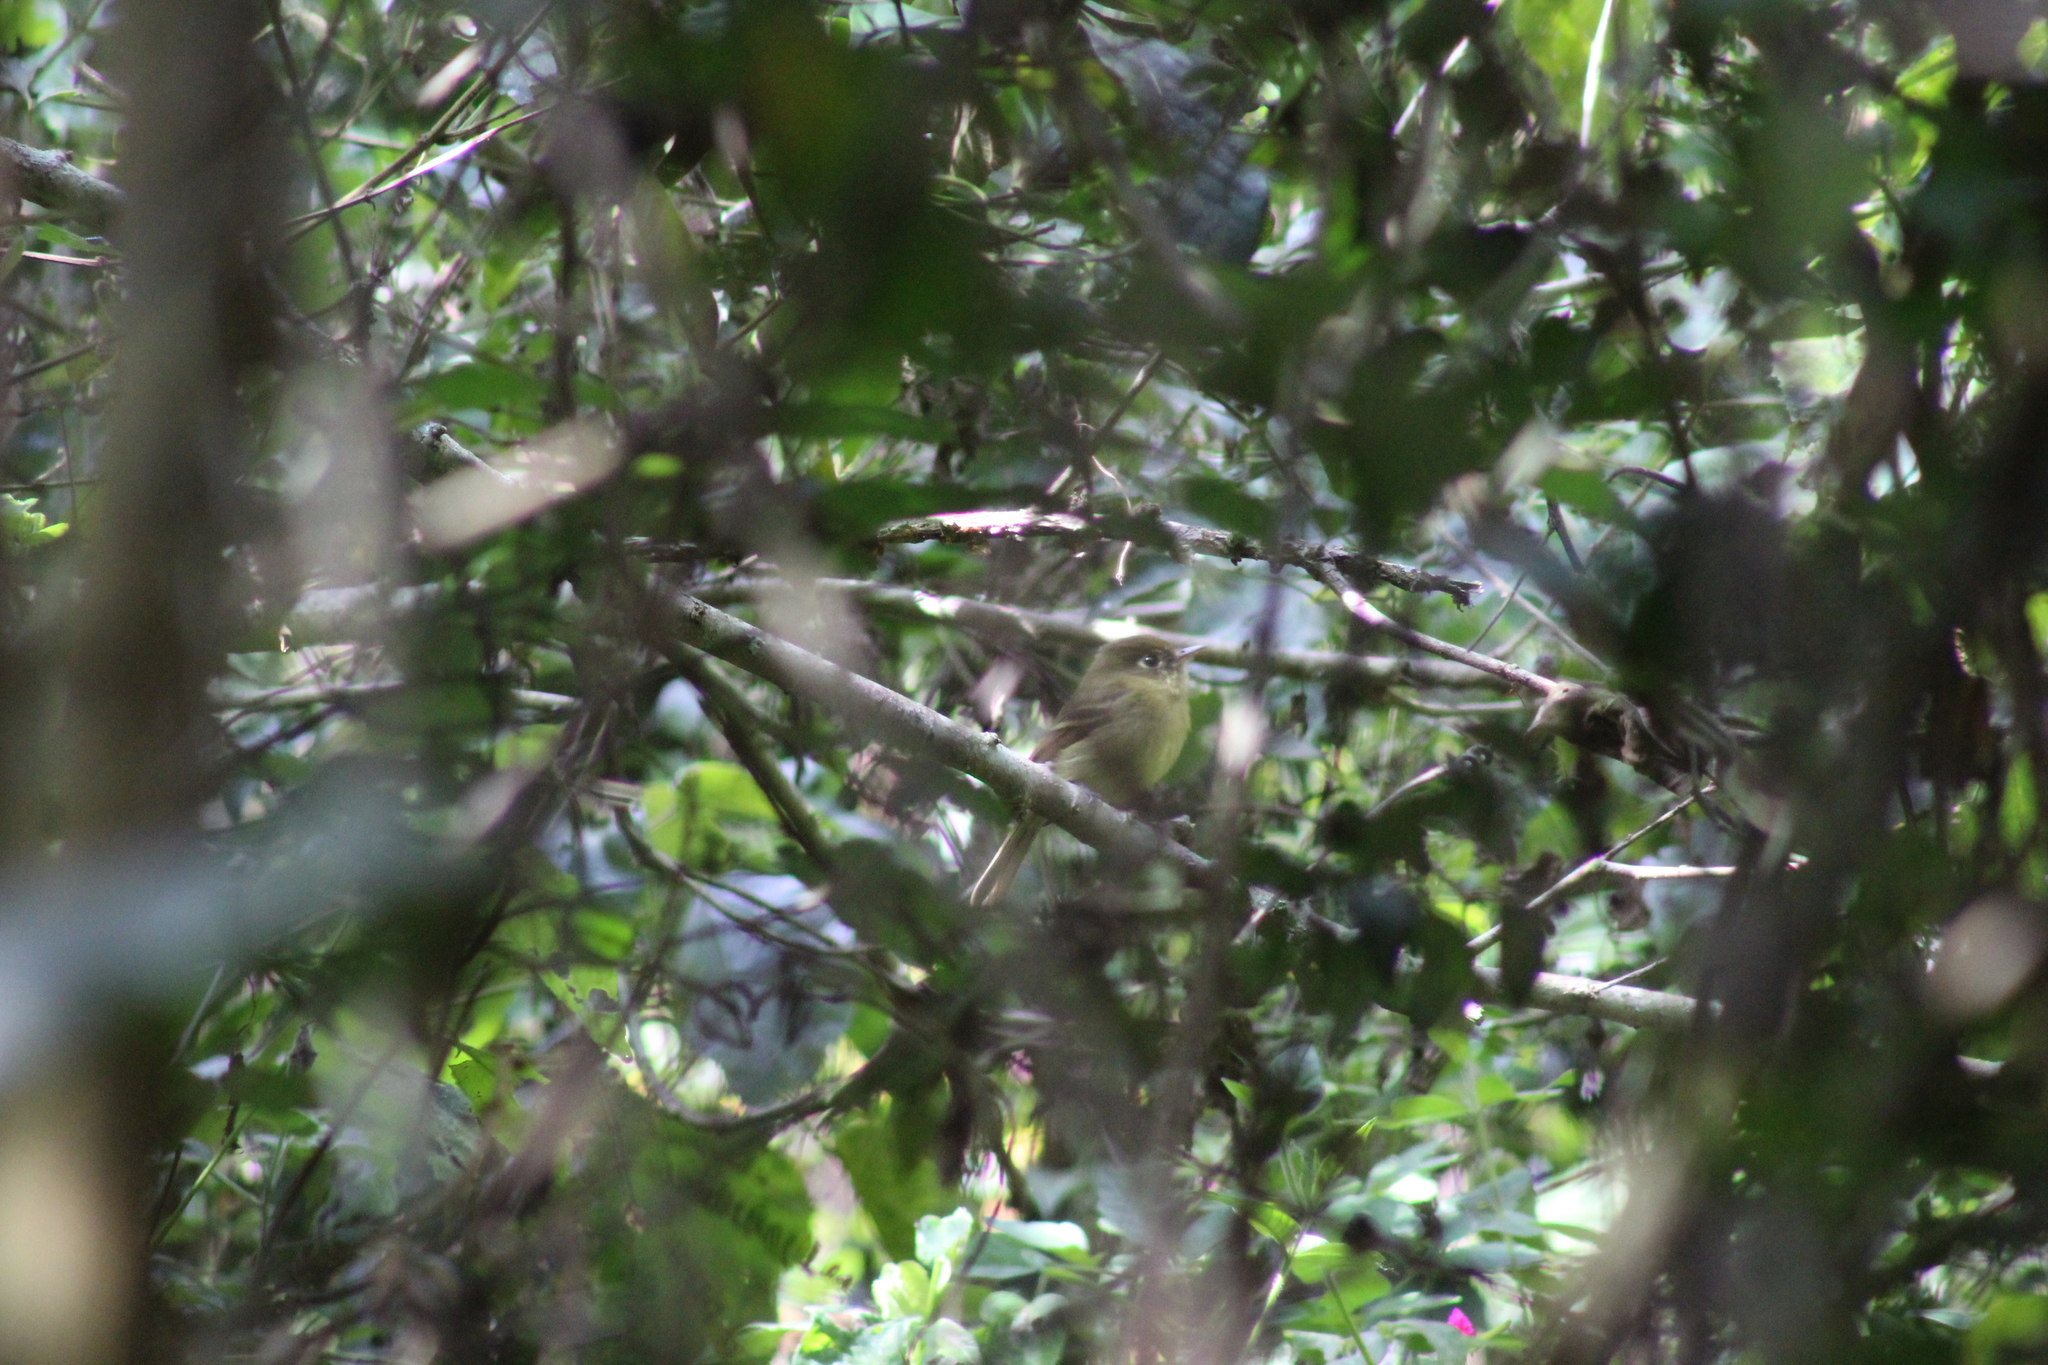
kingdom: Animalia
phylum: Chordata
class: Aves
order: Passeriformes
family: Tyrannidae
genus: Empidonax
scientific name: Empidonax difficilis
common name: Pacific-slope flycatcher
